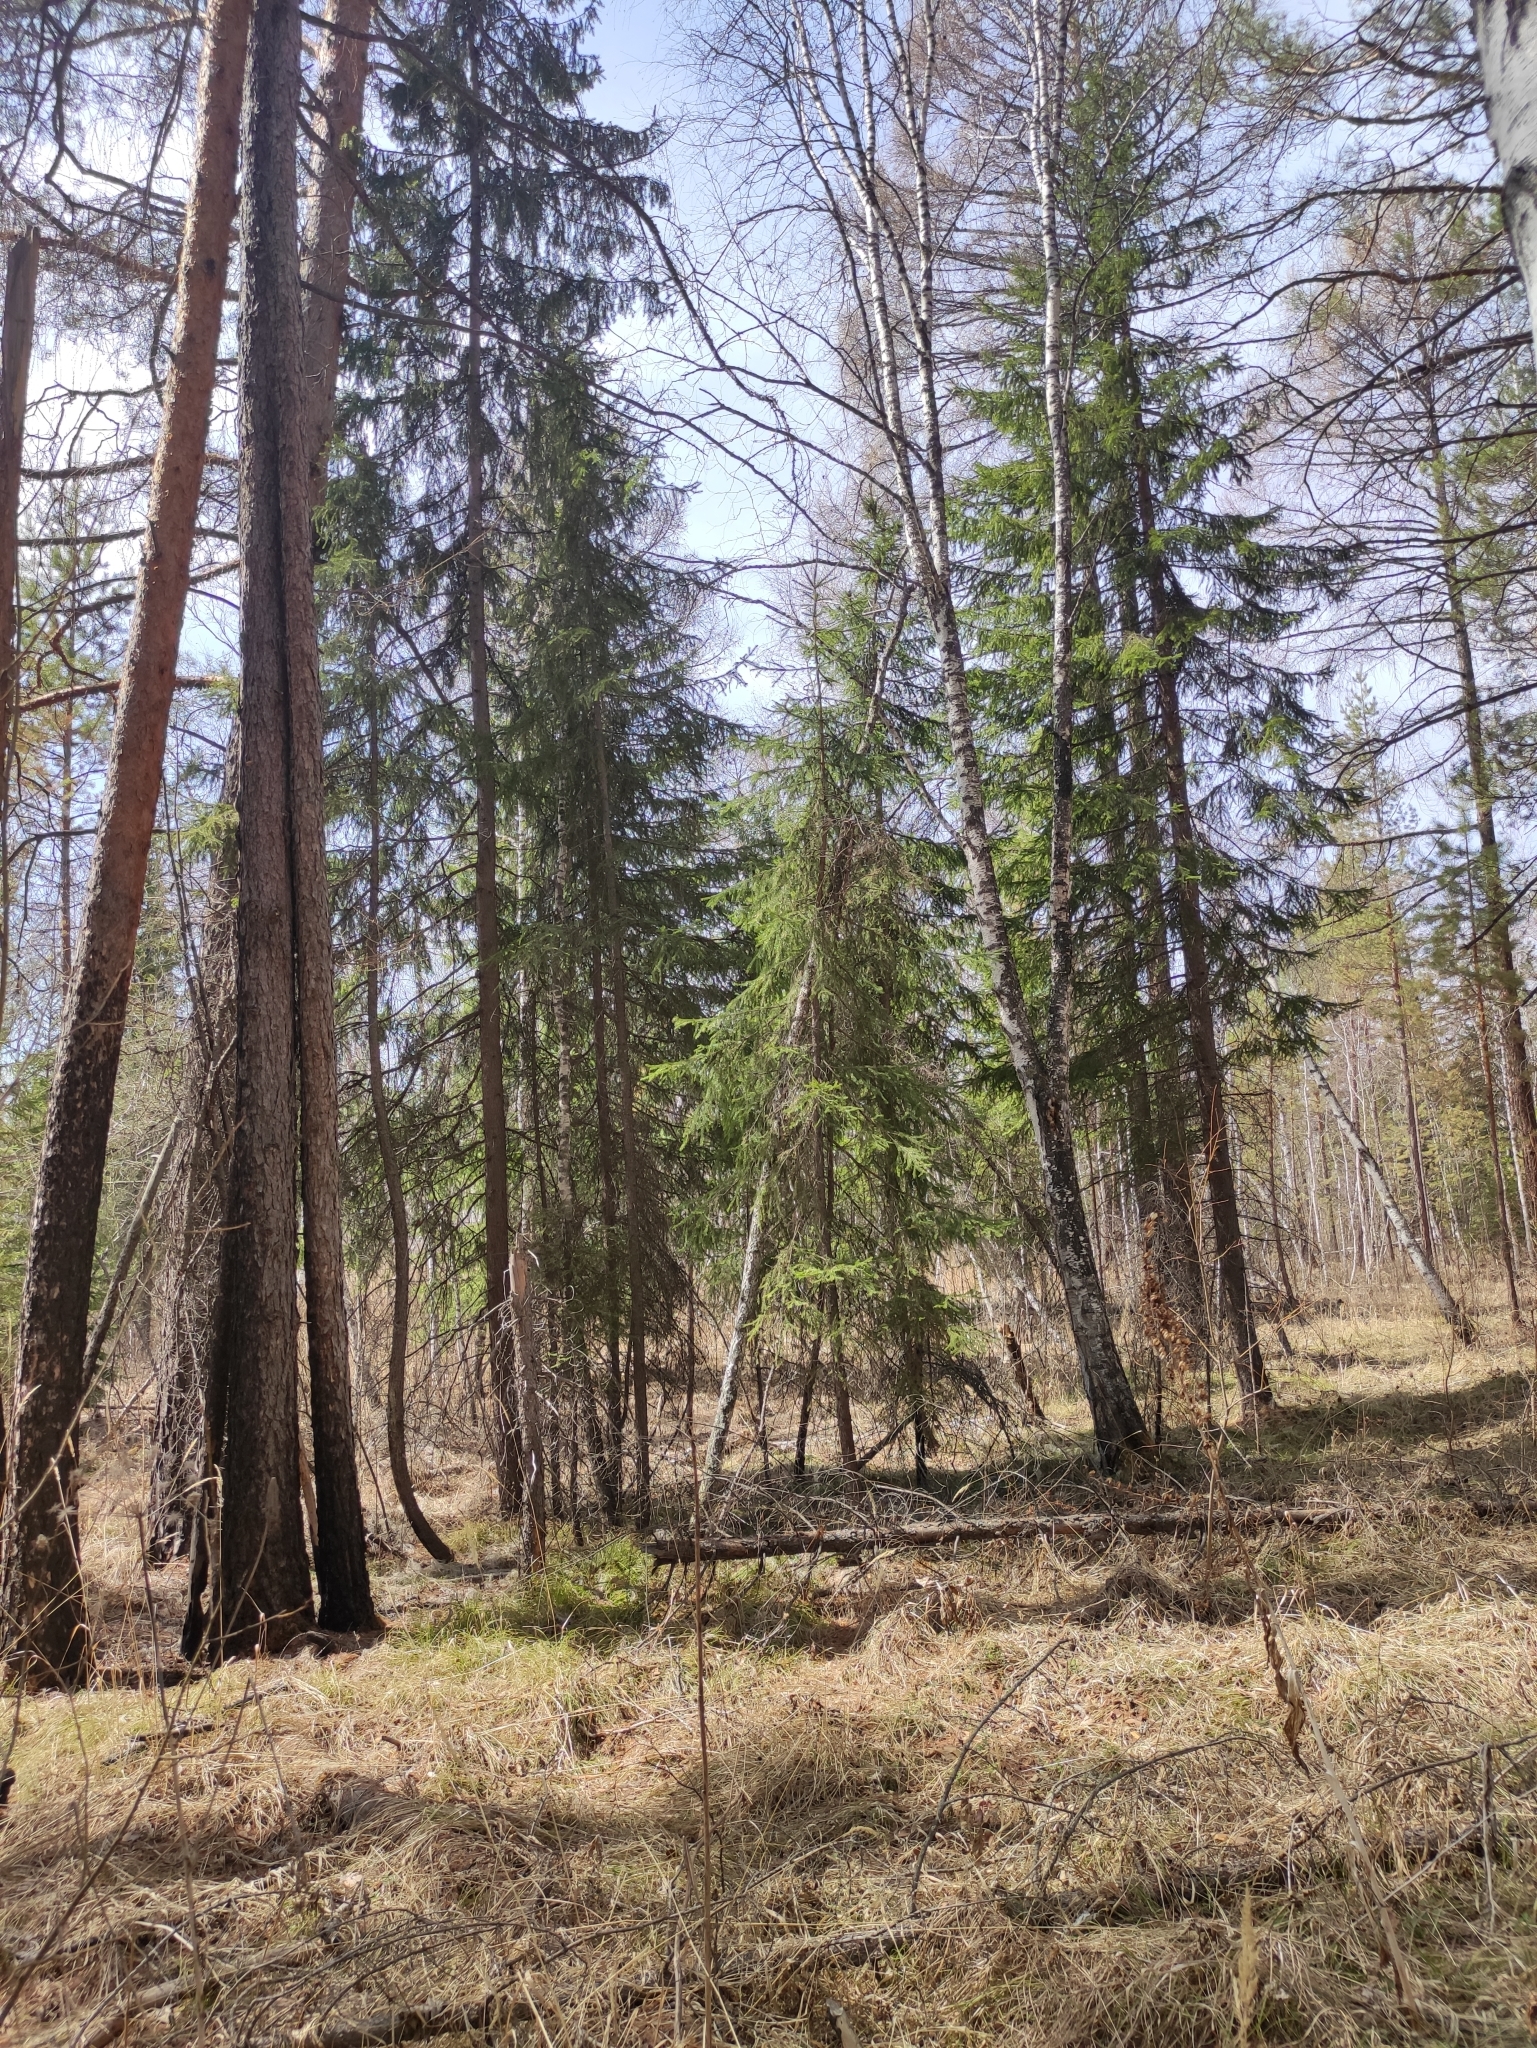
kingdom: Plantae
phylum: Tracheophyta
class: Pinopsida
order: Pinales
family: Pinaceae
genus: Picea
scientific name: Picea obovata
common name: Siberian spruce
